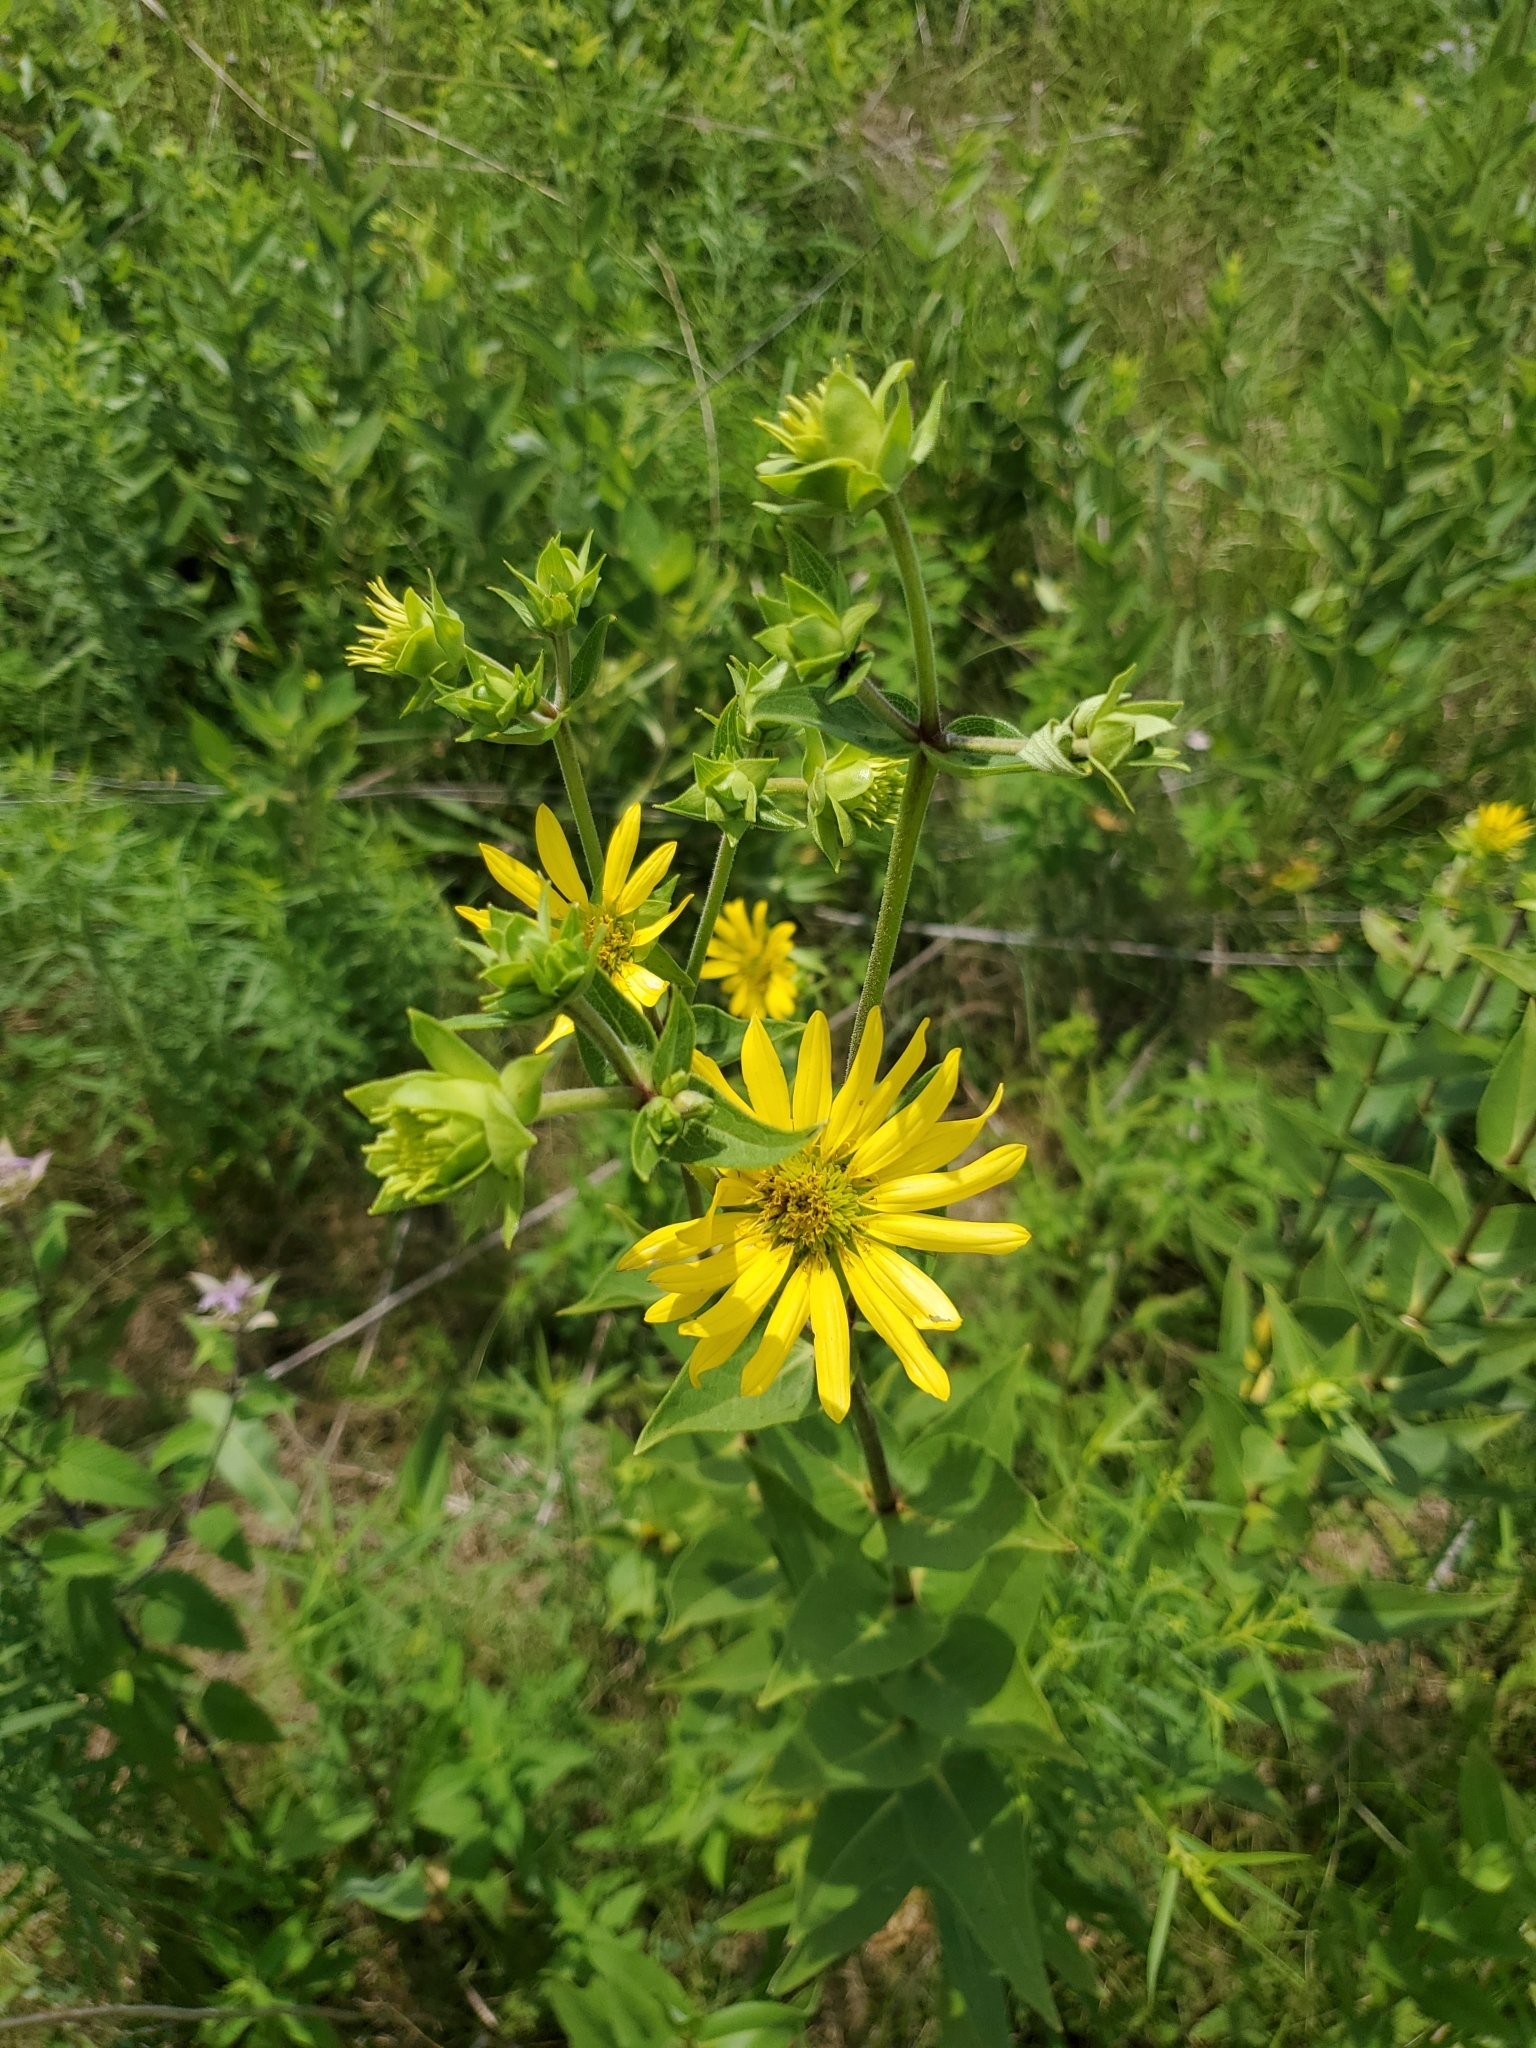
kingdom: Plantae
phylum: Tracheophyta
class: Magnoliopsida
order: Asterales
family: Asteraceae
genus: Silphium
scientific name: Silphium integrifolium
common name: Whole-leaf rosinweed
